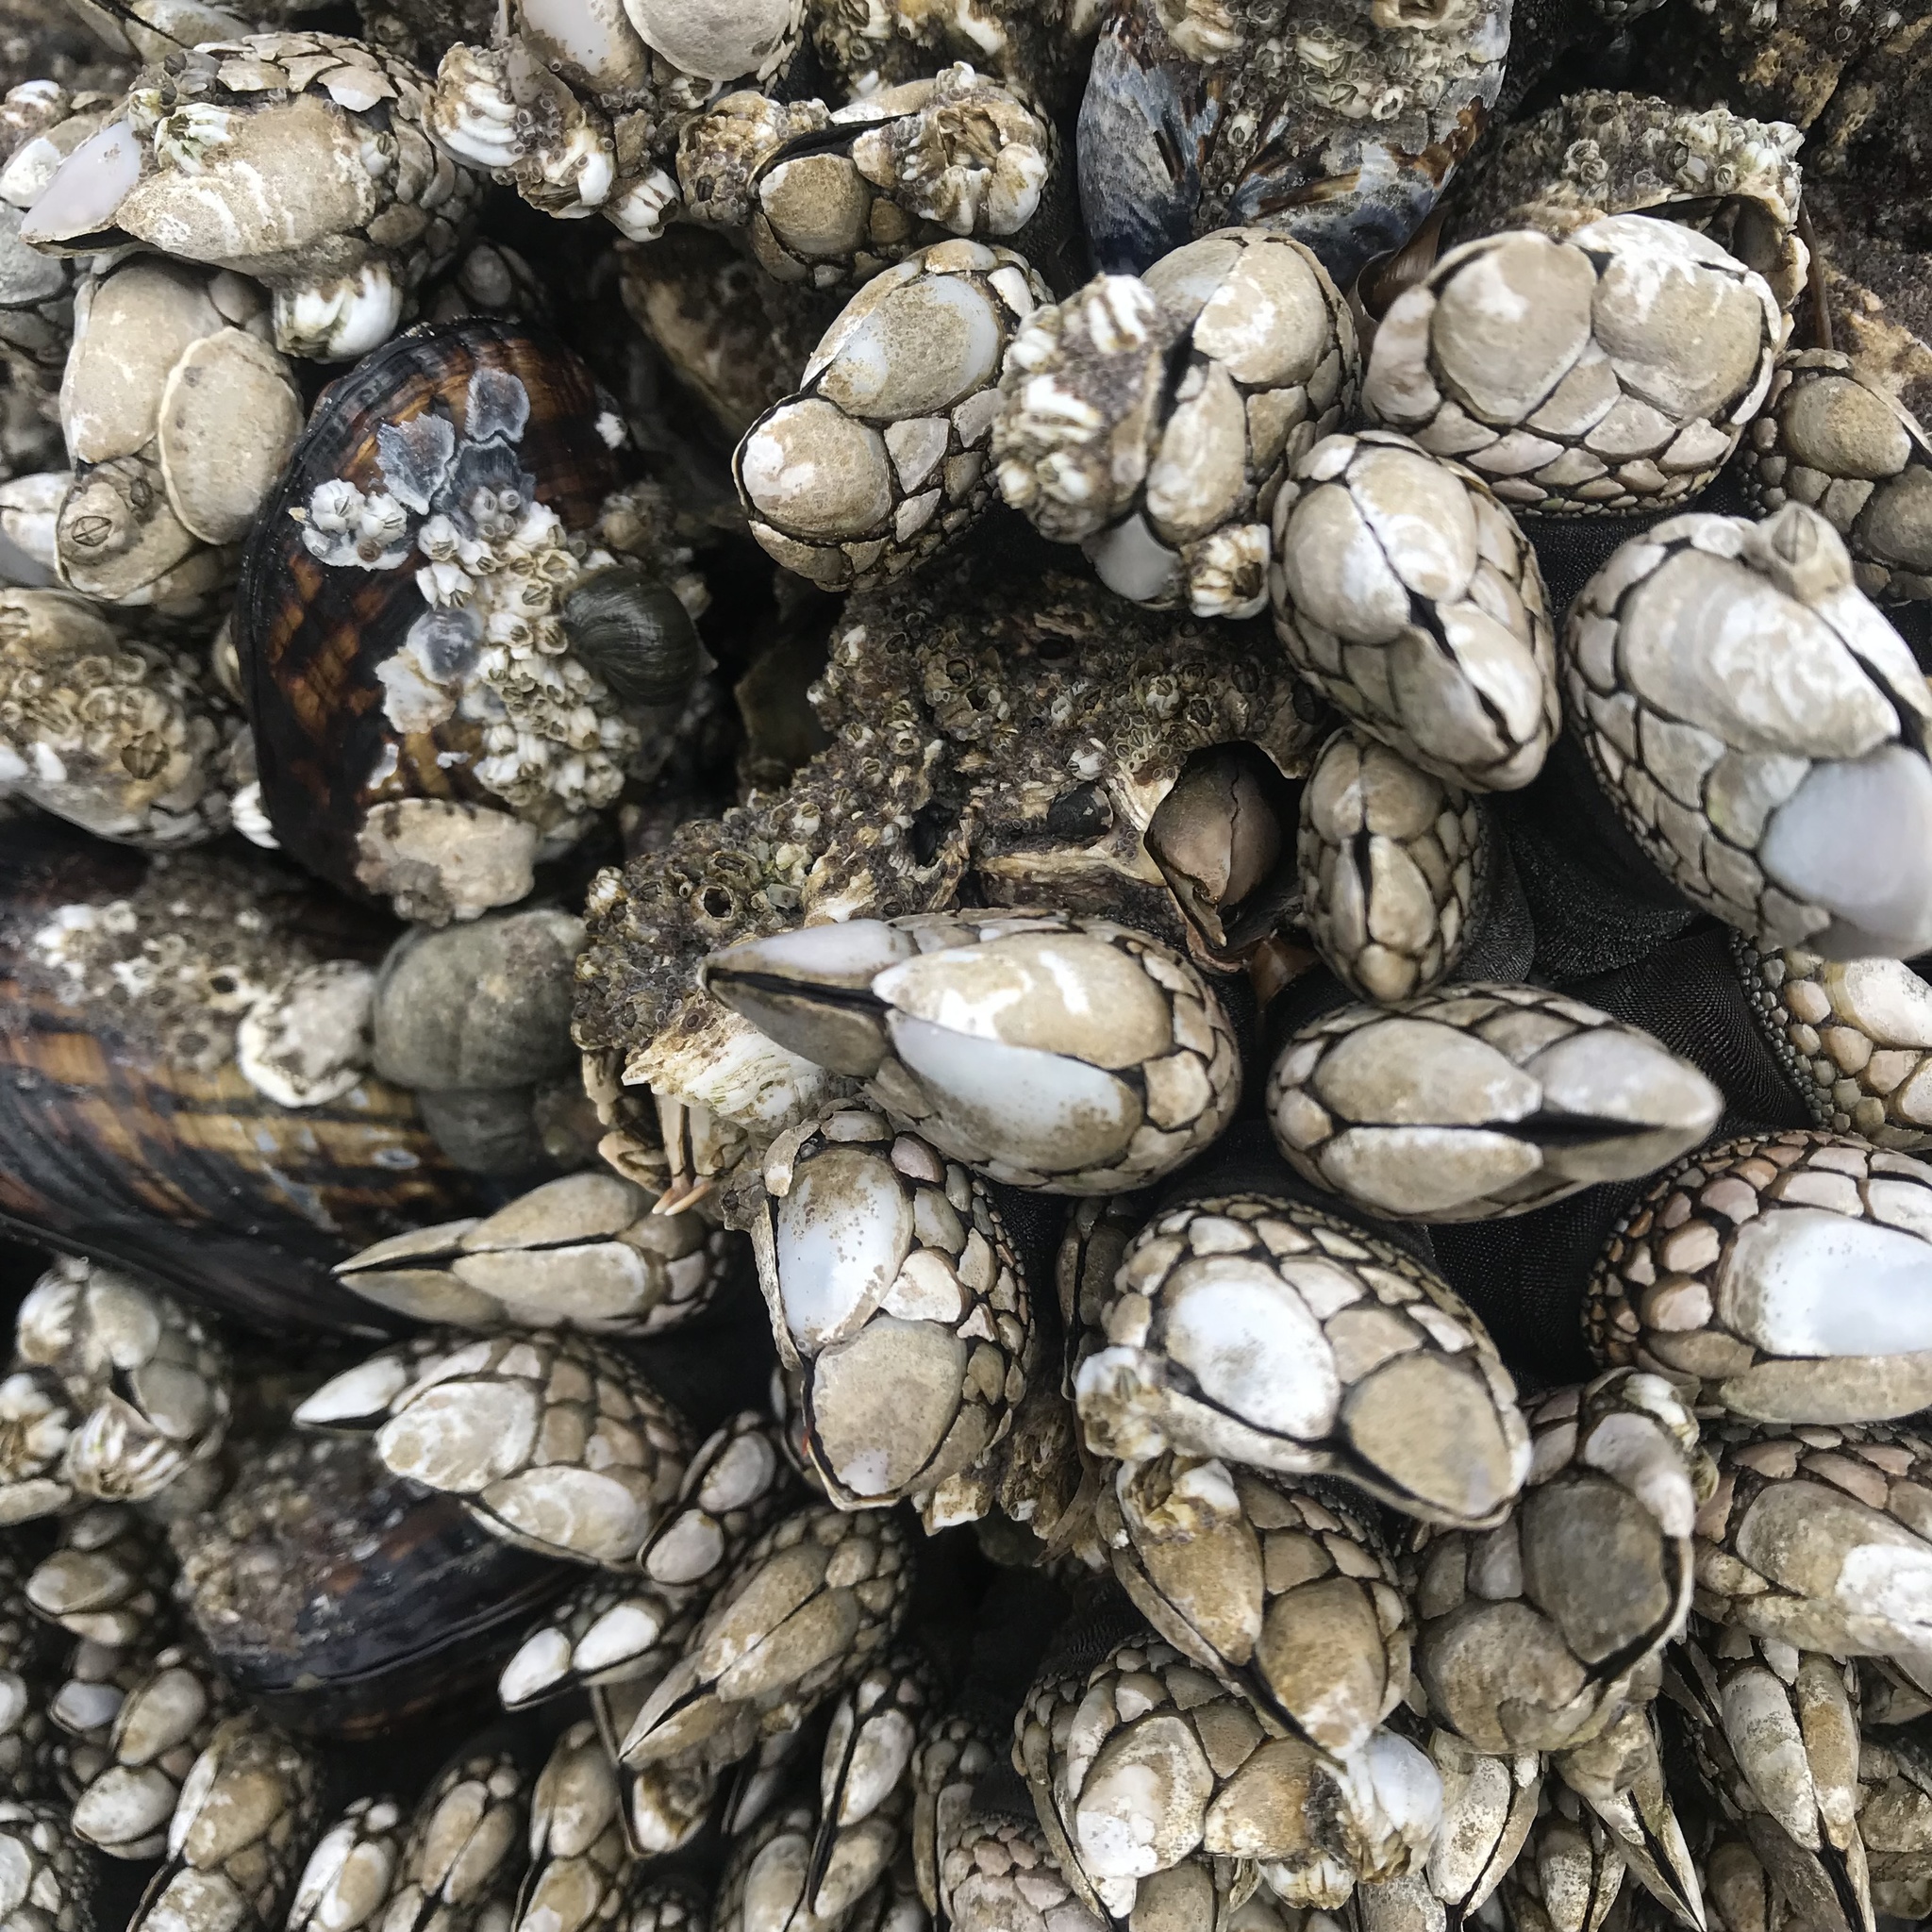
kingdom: Animalia
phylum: Arthropoda
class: Maxillopoda
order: Pedunculata
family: Pollicipedidae
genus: Pollicipes
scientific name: Pollicipes polymerus
